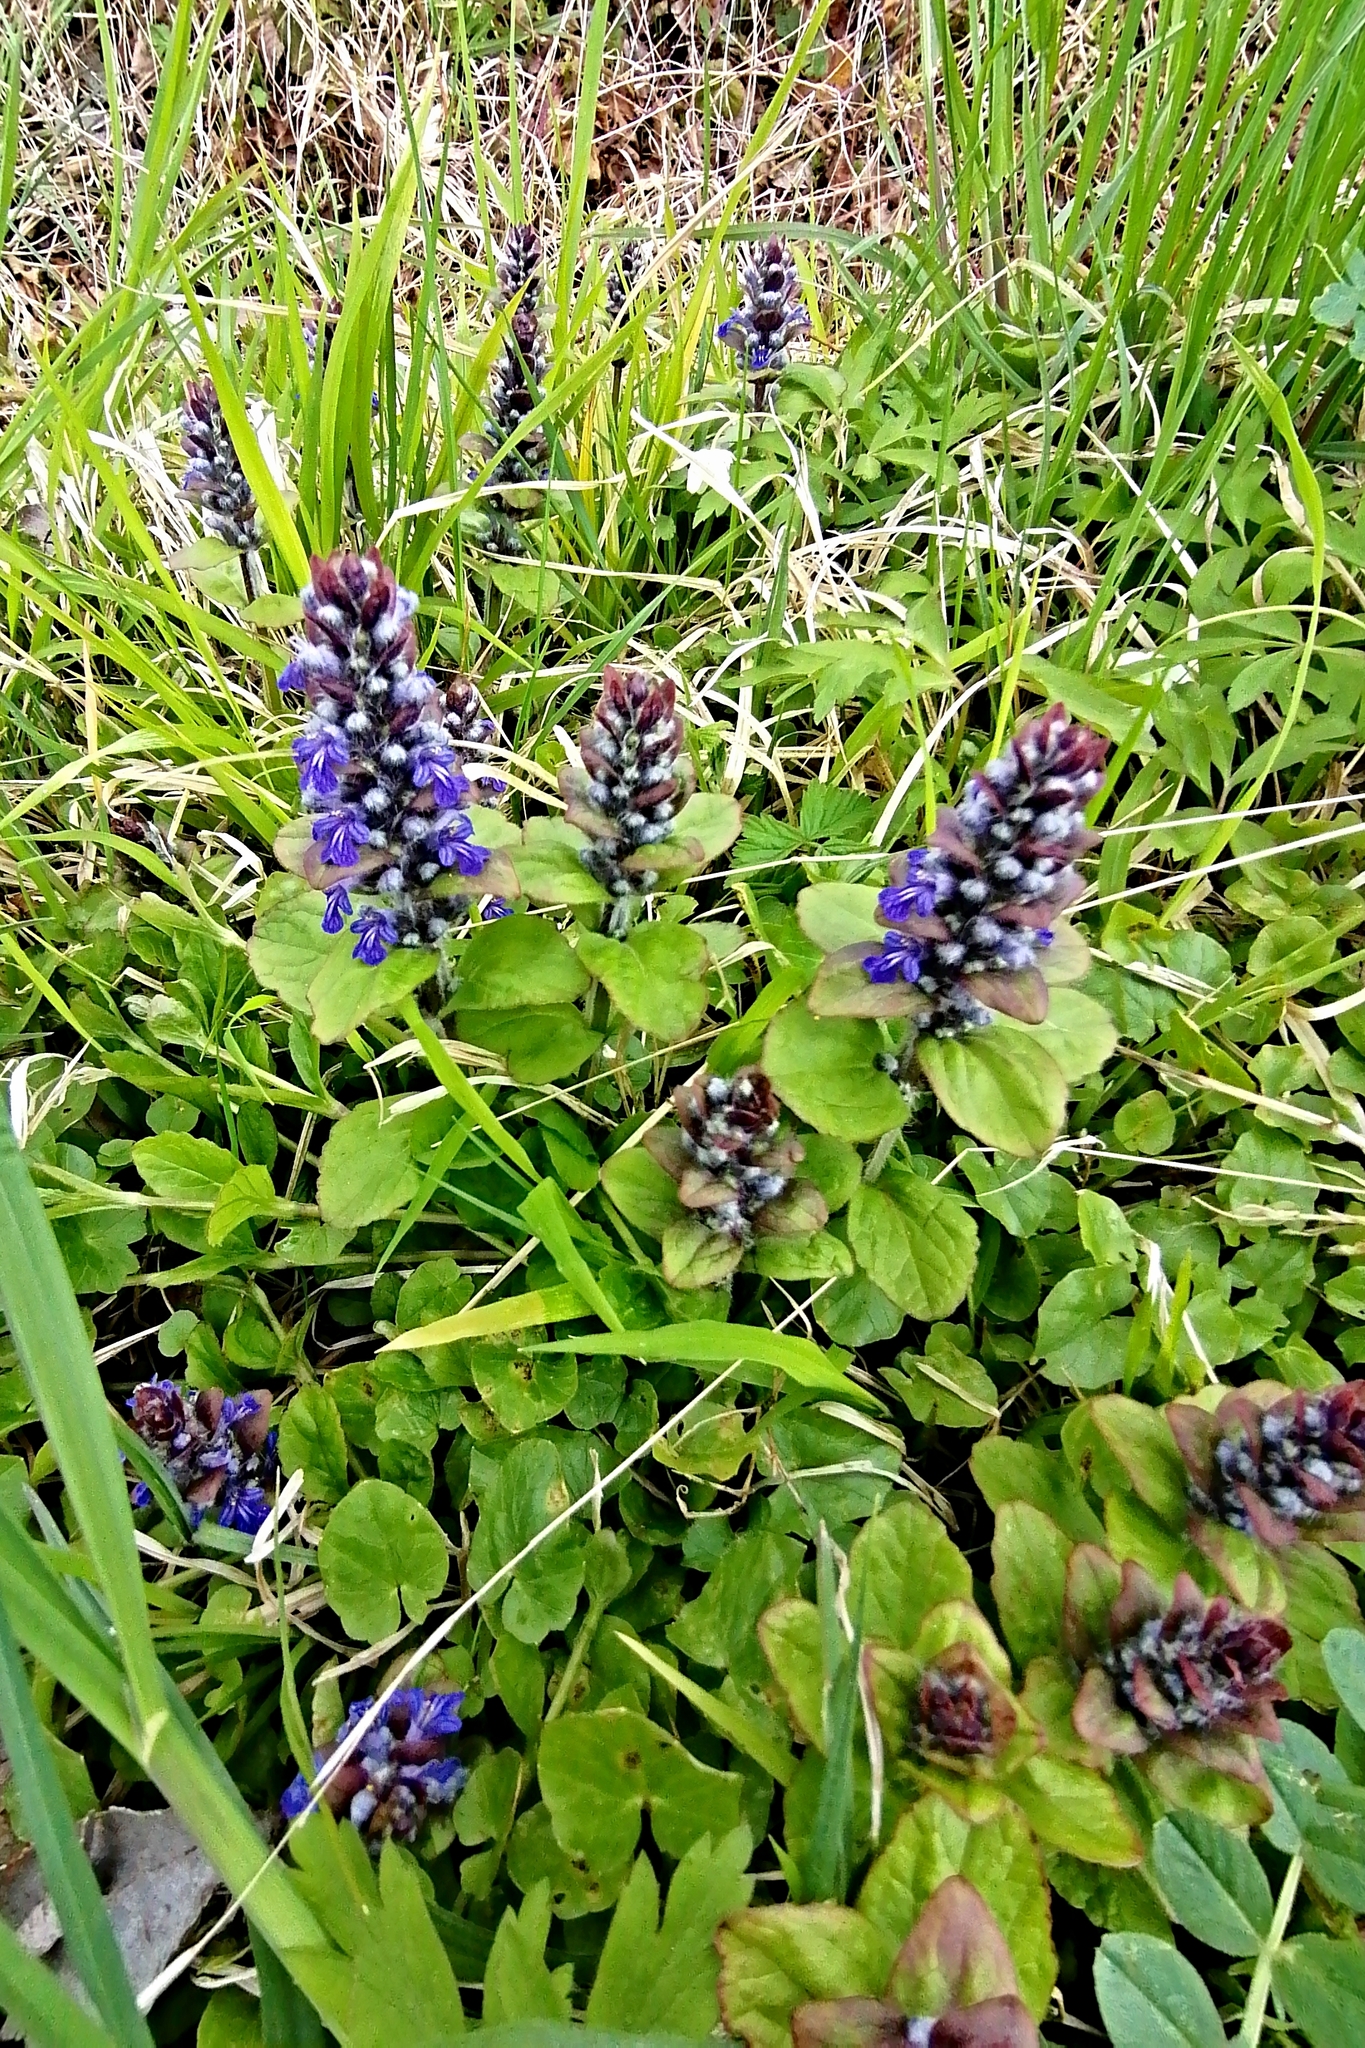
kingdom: Plantae
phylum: Tracheophyta
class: Magnoliopsida
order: Lamiales
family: Lamiaceae
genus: Ajuga
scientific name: Ajuga reptans
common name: Bugle
